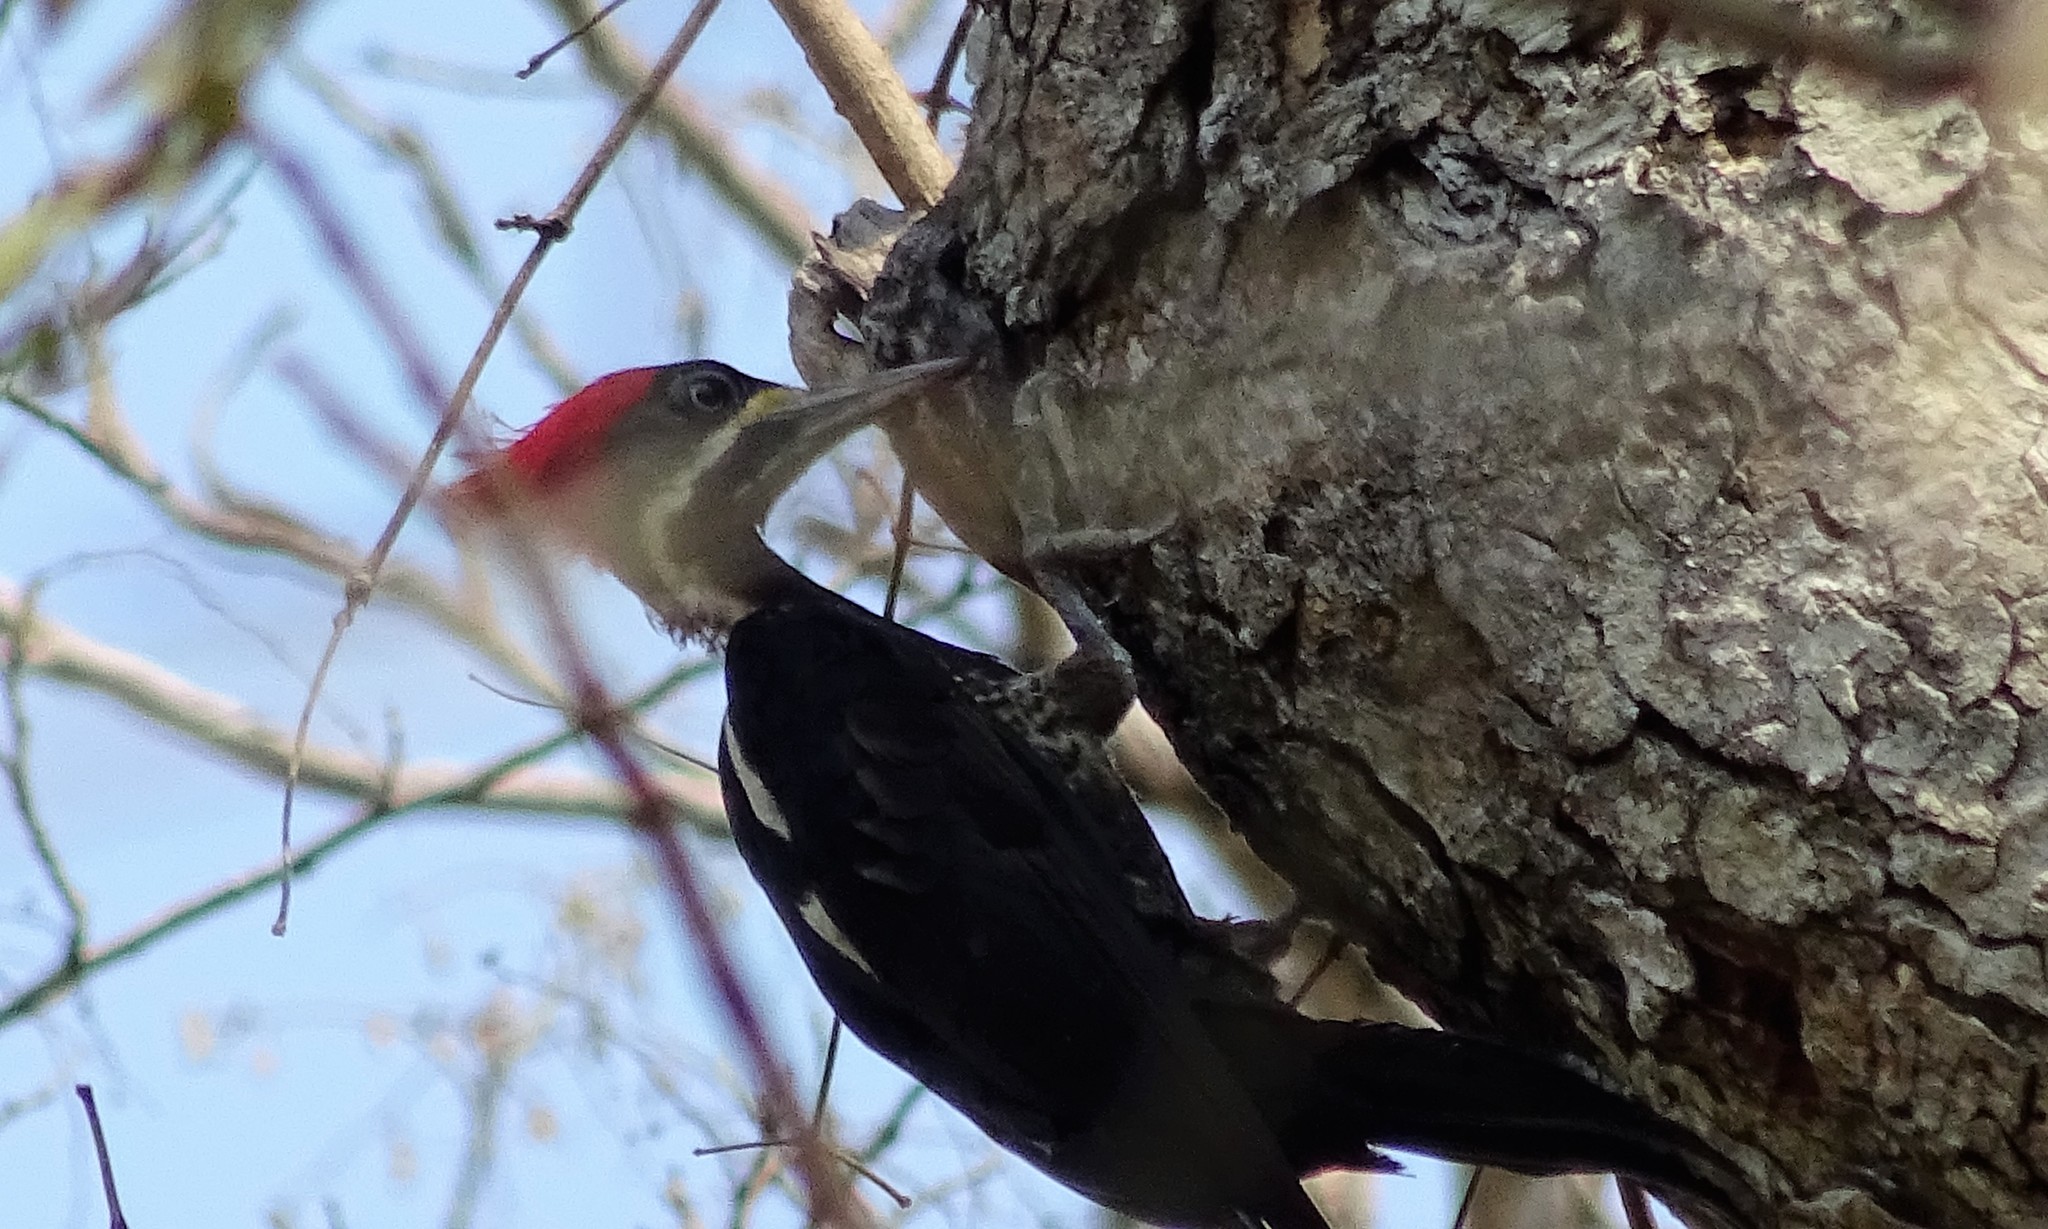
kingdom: Animalia
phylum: Chordata
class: Aves
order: Piciformes
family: Picidae
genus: Dryocopus
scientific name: Dryocopus lineatus
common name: Lineated woodpecker
